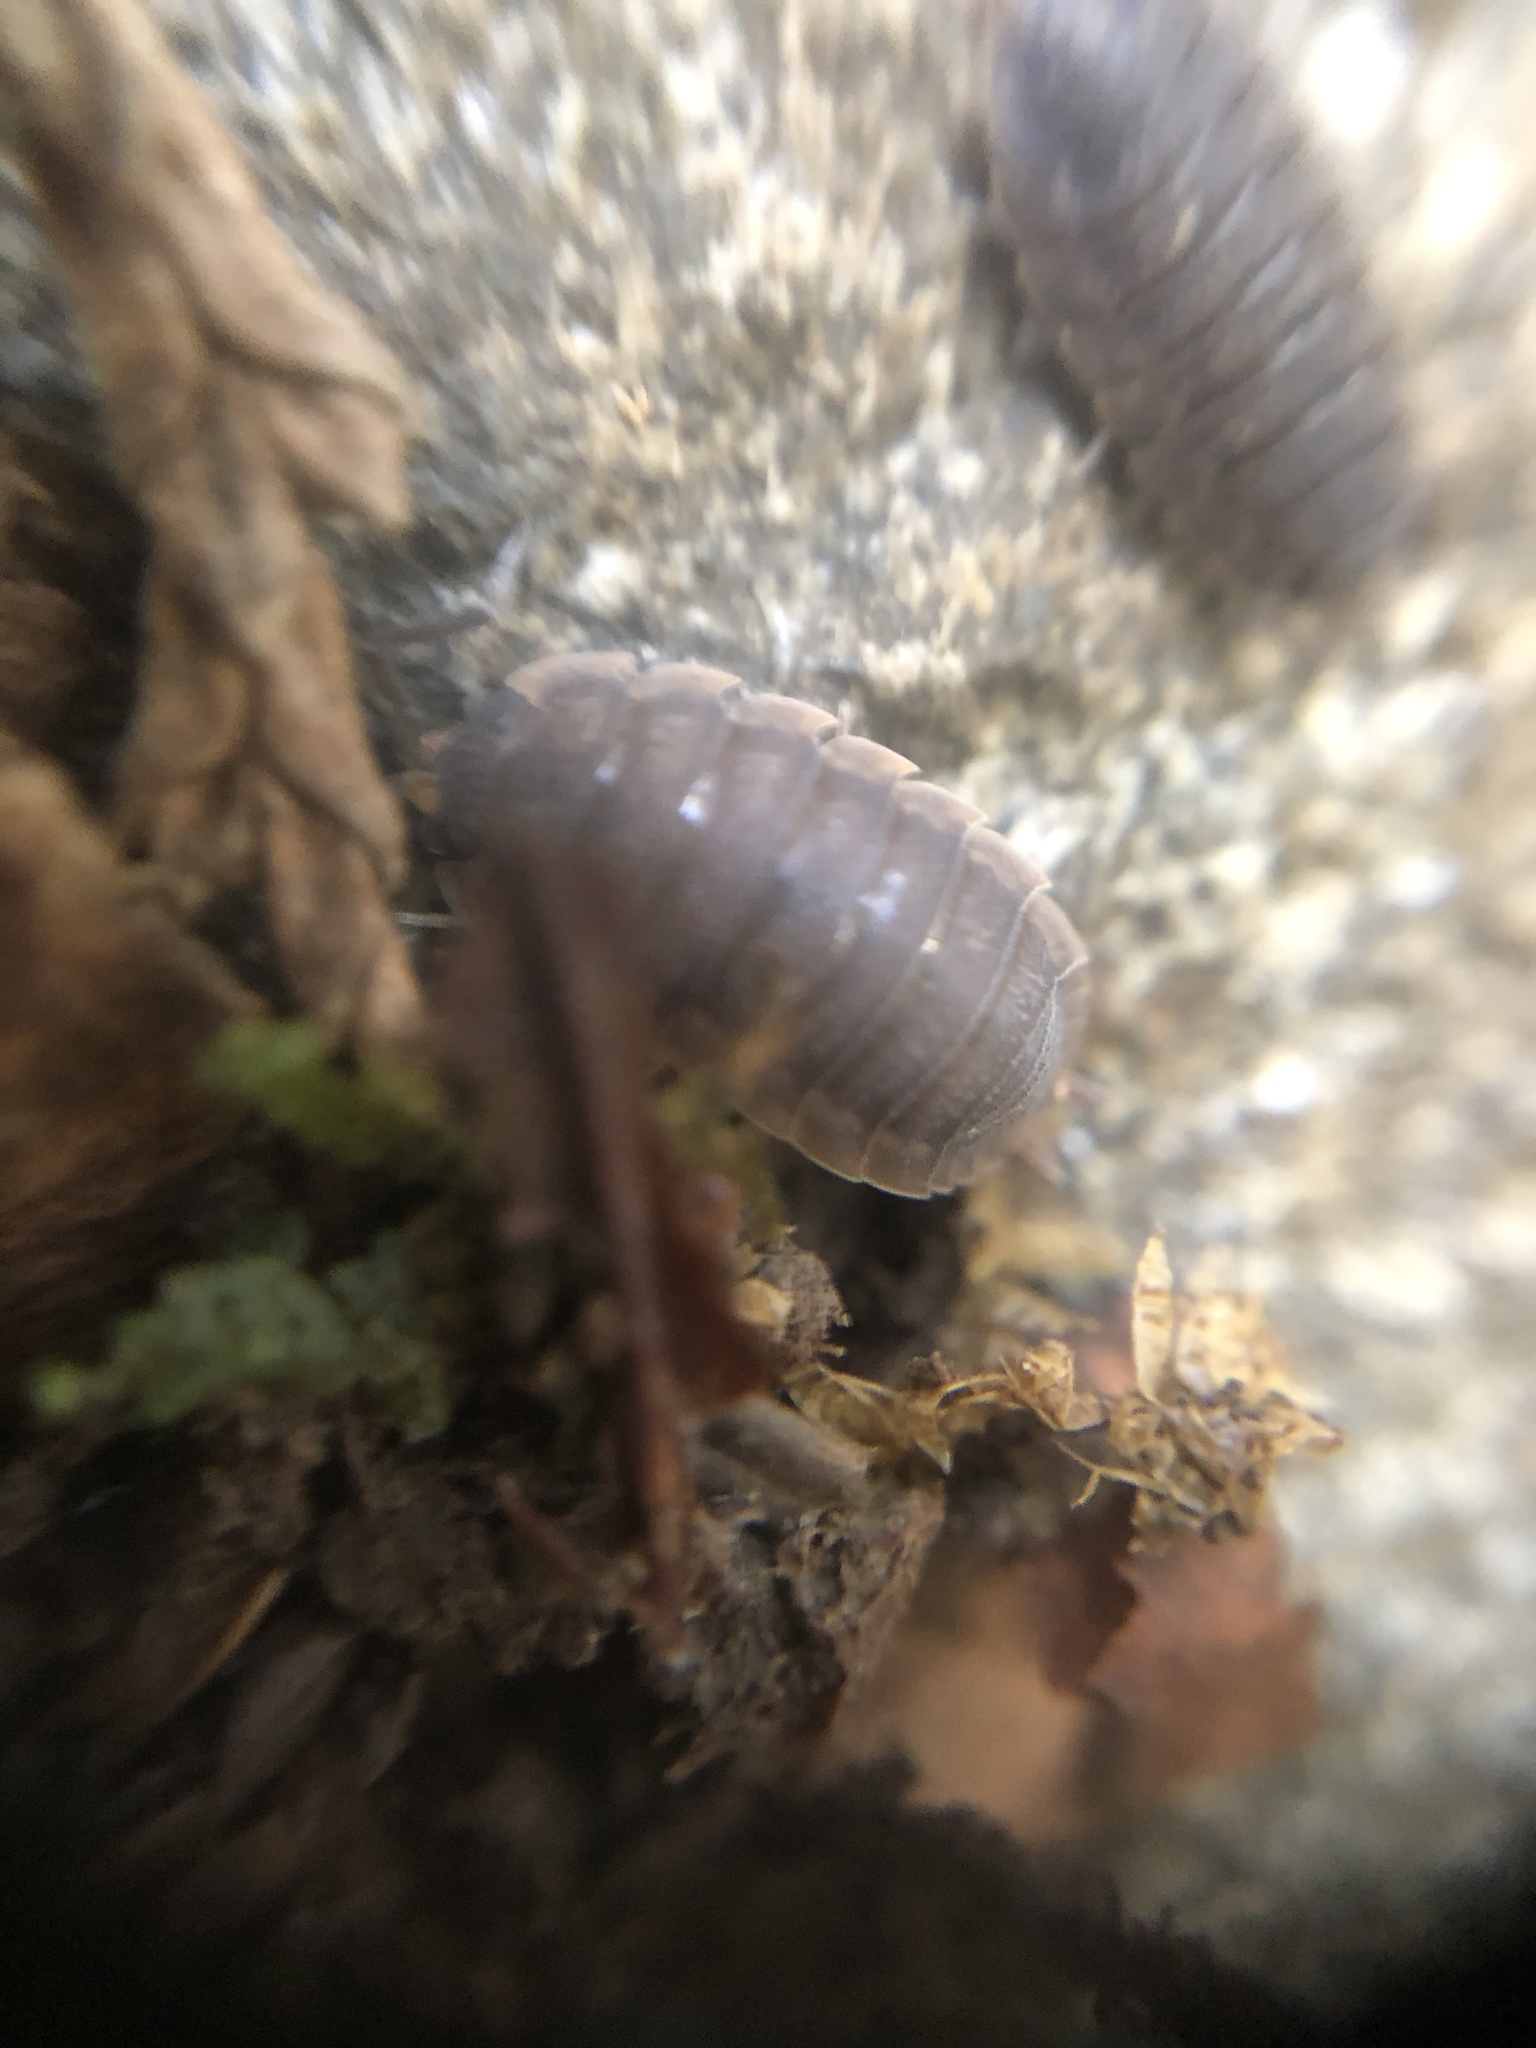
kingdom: Animalia
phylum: Arthropoda
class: Malacostraca
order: Isopoda
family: Porcellionidae
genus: Porcellio
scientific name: Porcellio scaber
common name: Common rough woodlouse
